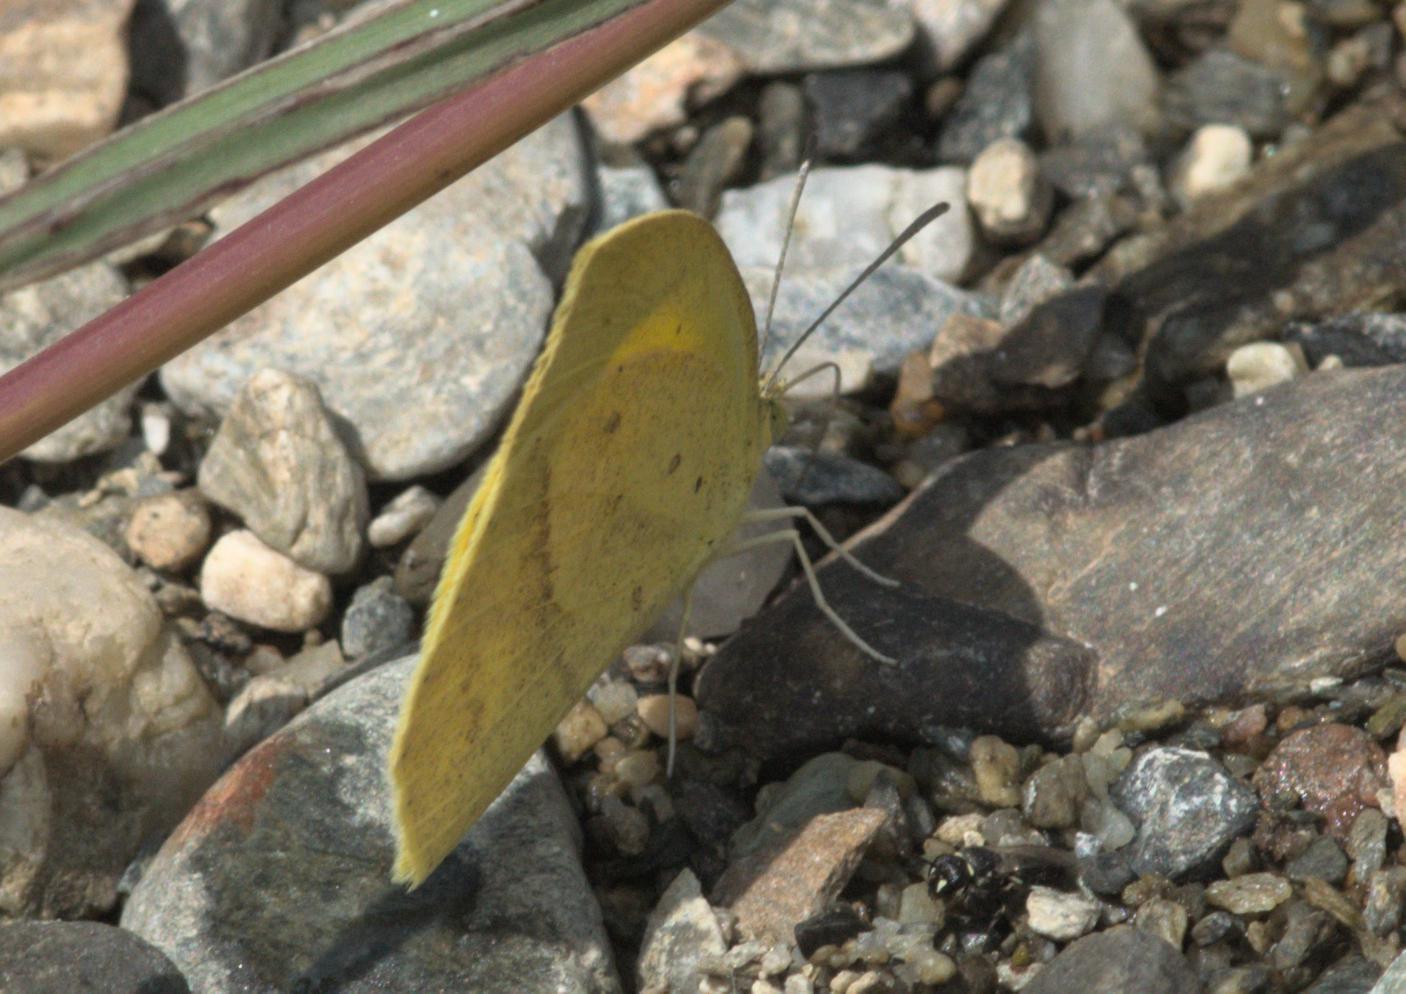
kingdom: Animalia
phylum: Arthropoda
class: Insecta
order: Lepidoptera
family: Pieridae
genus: Eurema
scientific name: Eurema laeta
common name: Spotless grass yellow
